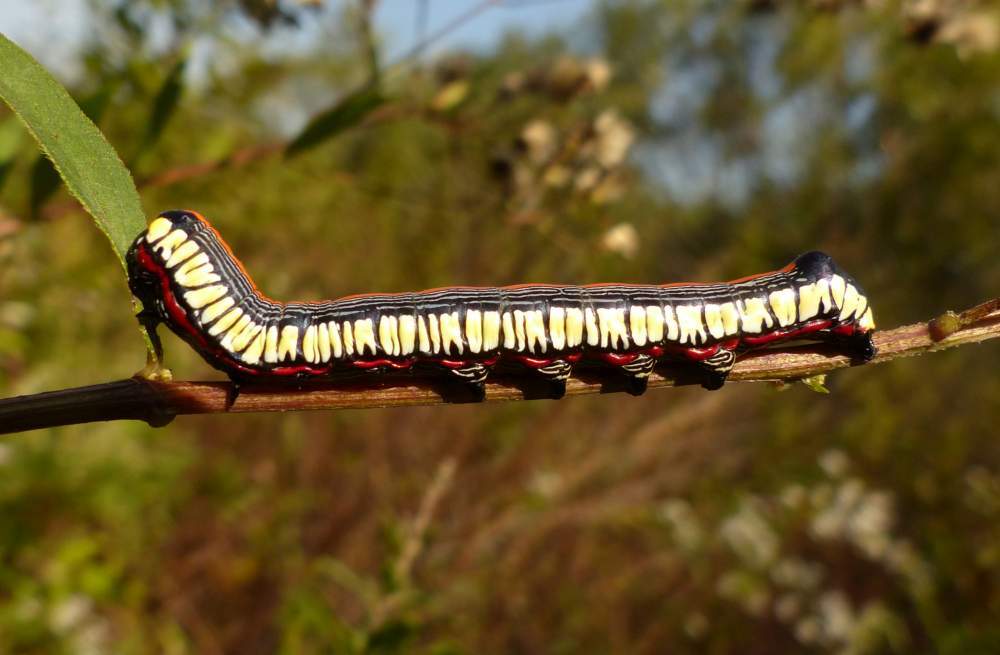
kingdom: Animalia
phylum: Arthropoda
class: Insecta
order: Lepidoptera
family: Noctuidae
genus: Cucullia
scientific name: Cucullia convexipennis
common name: Brown-hooded owlet
